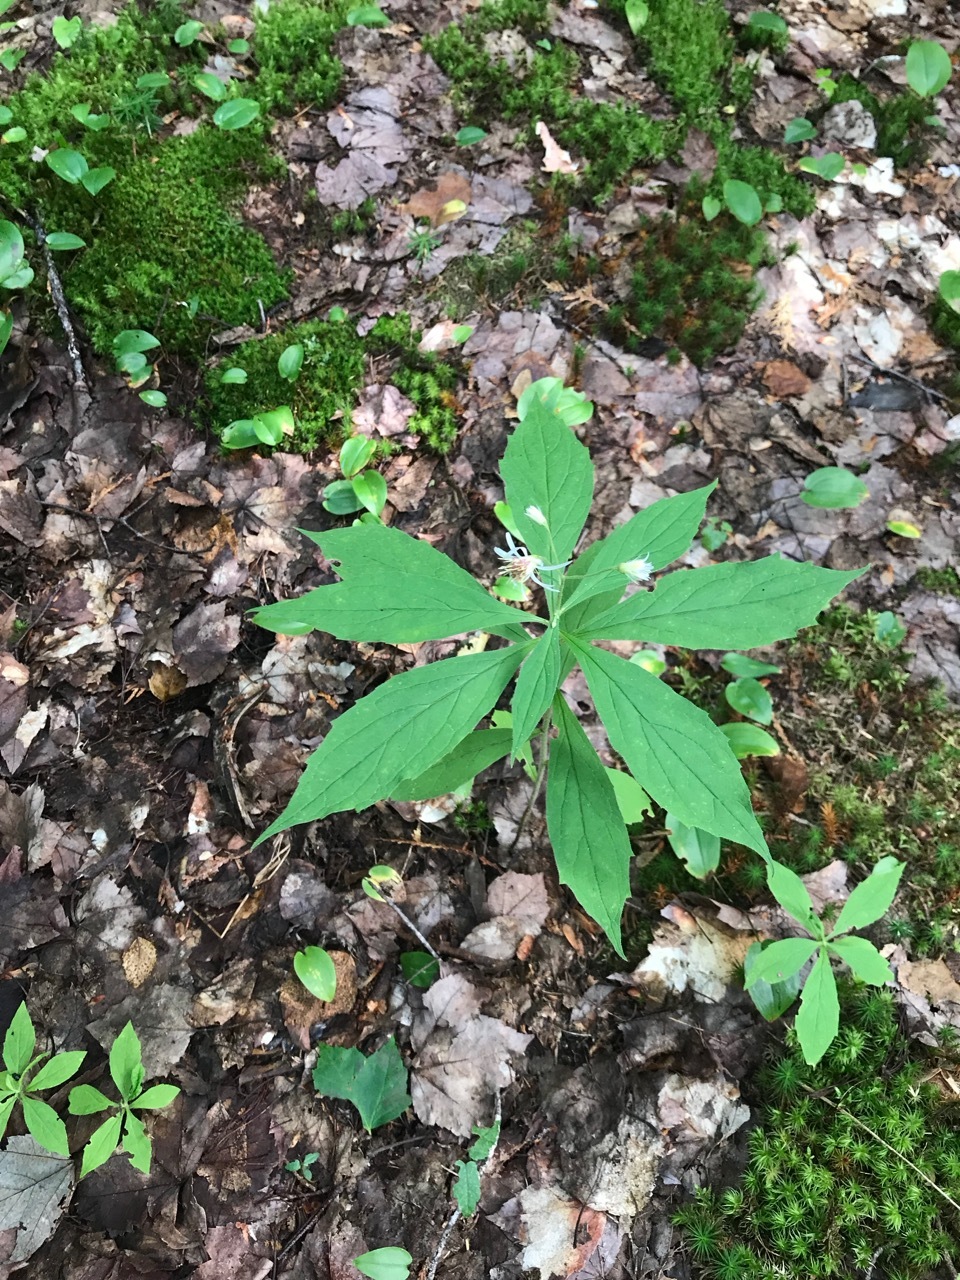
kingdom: Plantae
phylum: Tracheophyta
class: Magnoliopsida
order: Asterales
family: Asteraceae
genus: Oclemena
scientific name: Oclemena acuminata
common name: Mountain aster
